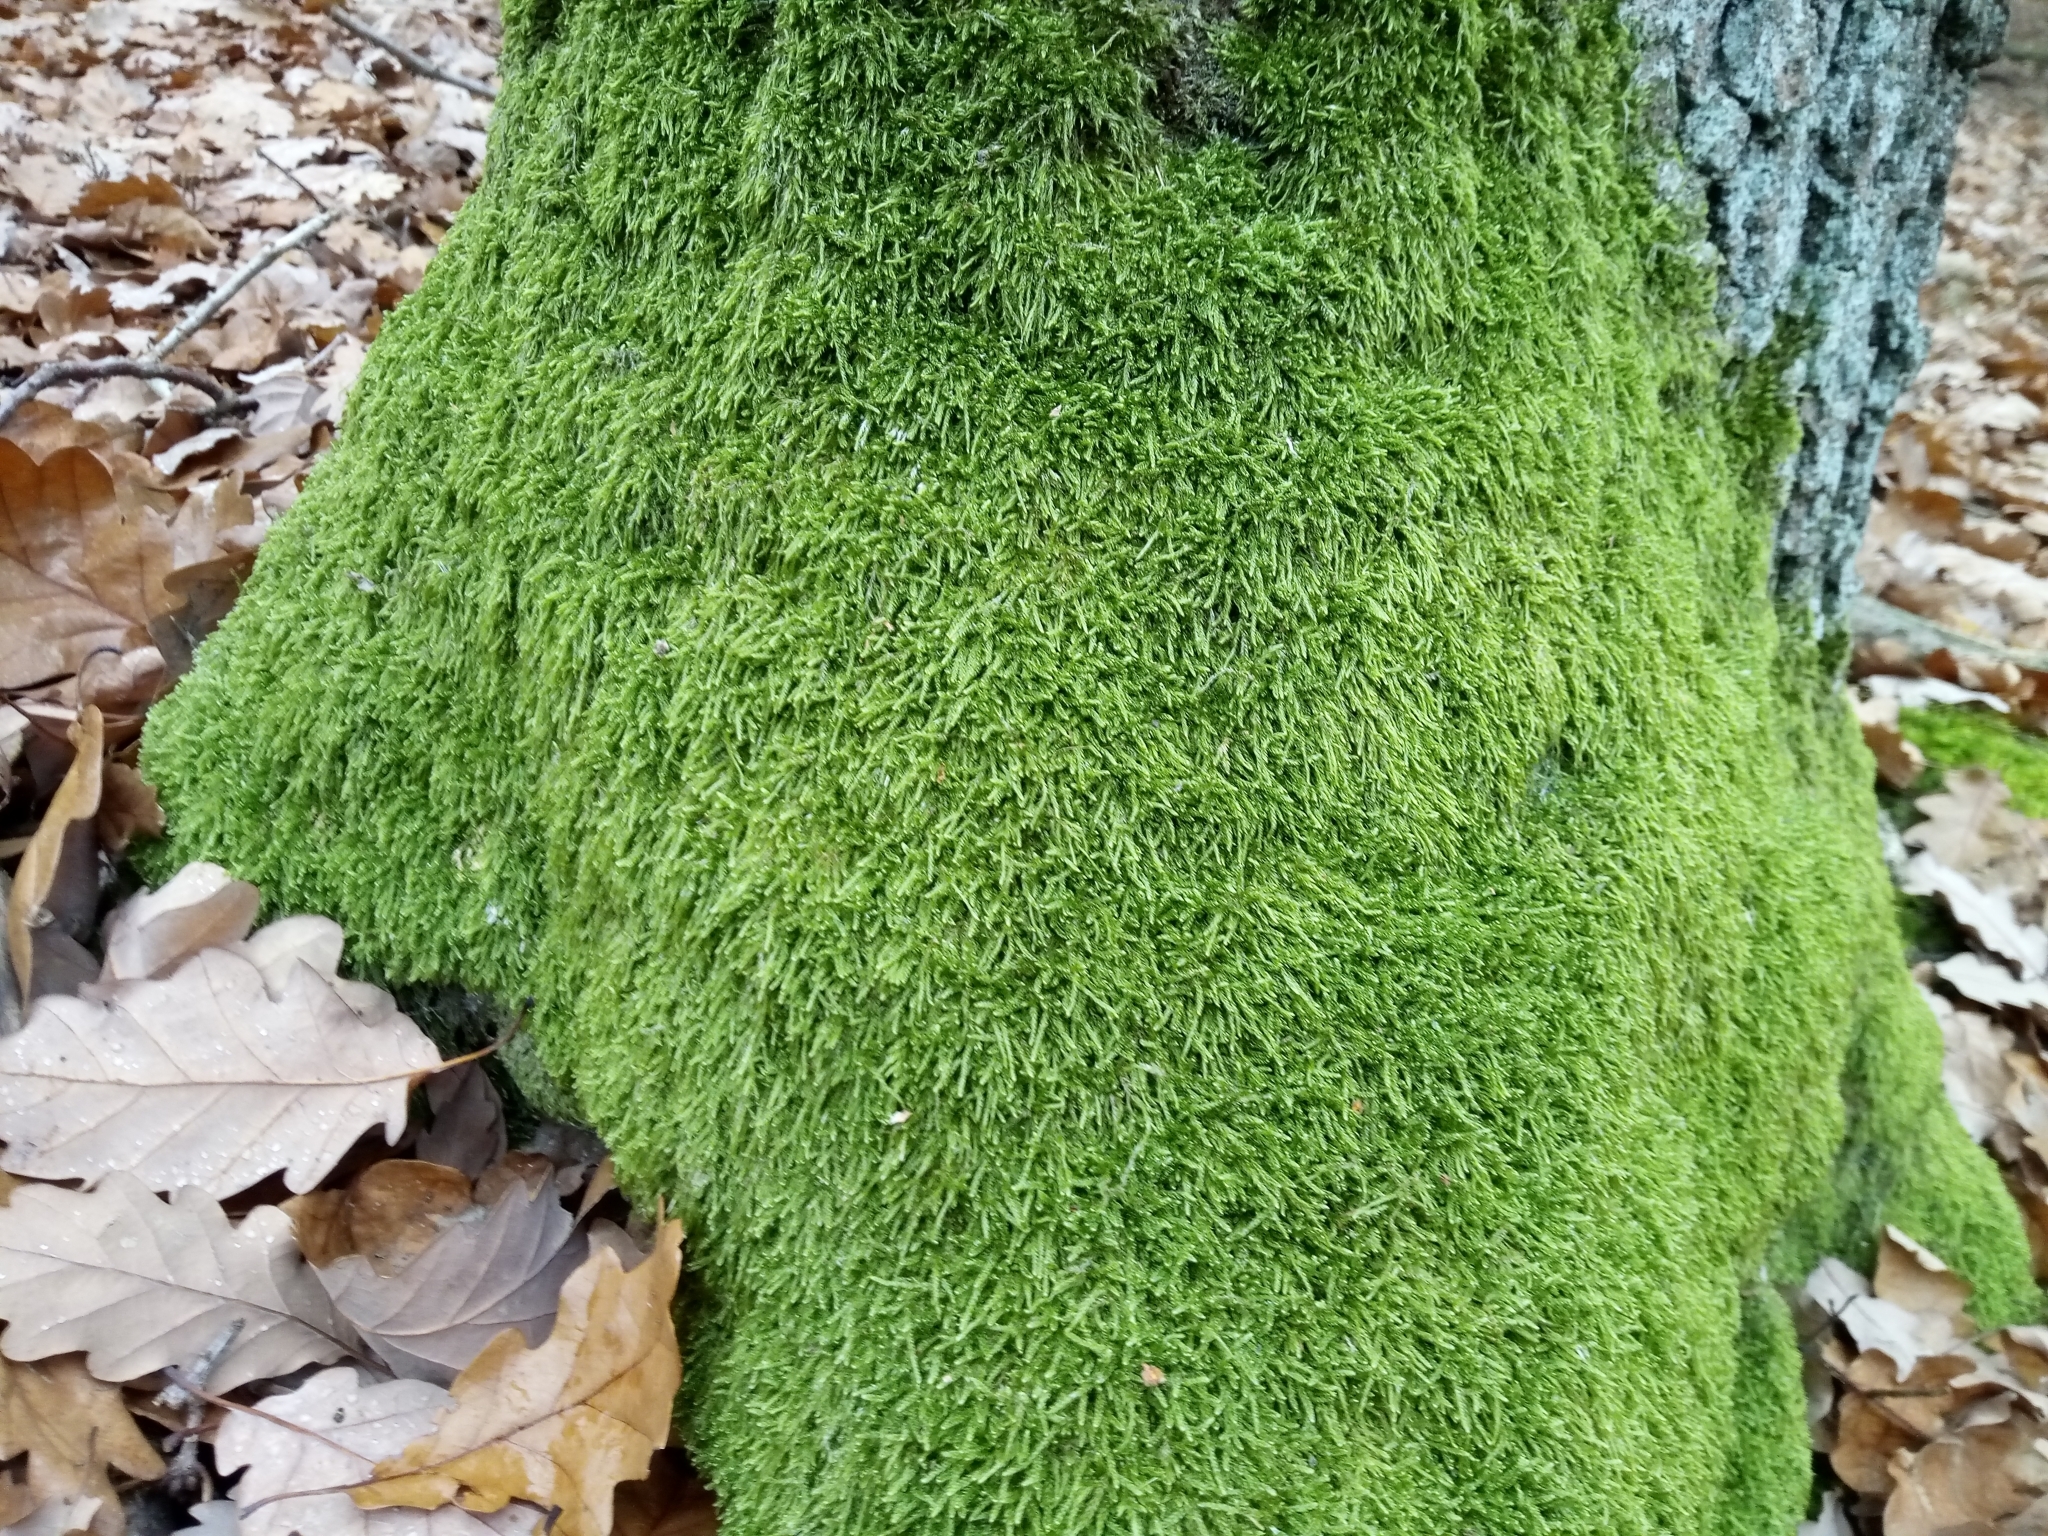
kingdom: Plantae
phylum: Bryophyta
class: Bryopsida
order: Hypnales
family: Hypnaceae
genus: Hypnum
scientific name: Hypnum cupressiforme
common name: Cypress-leaved plait-moss
